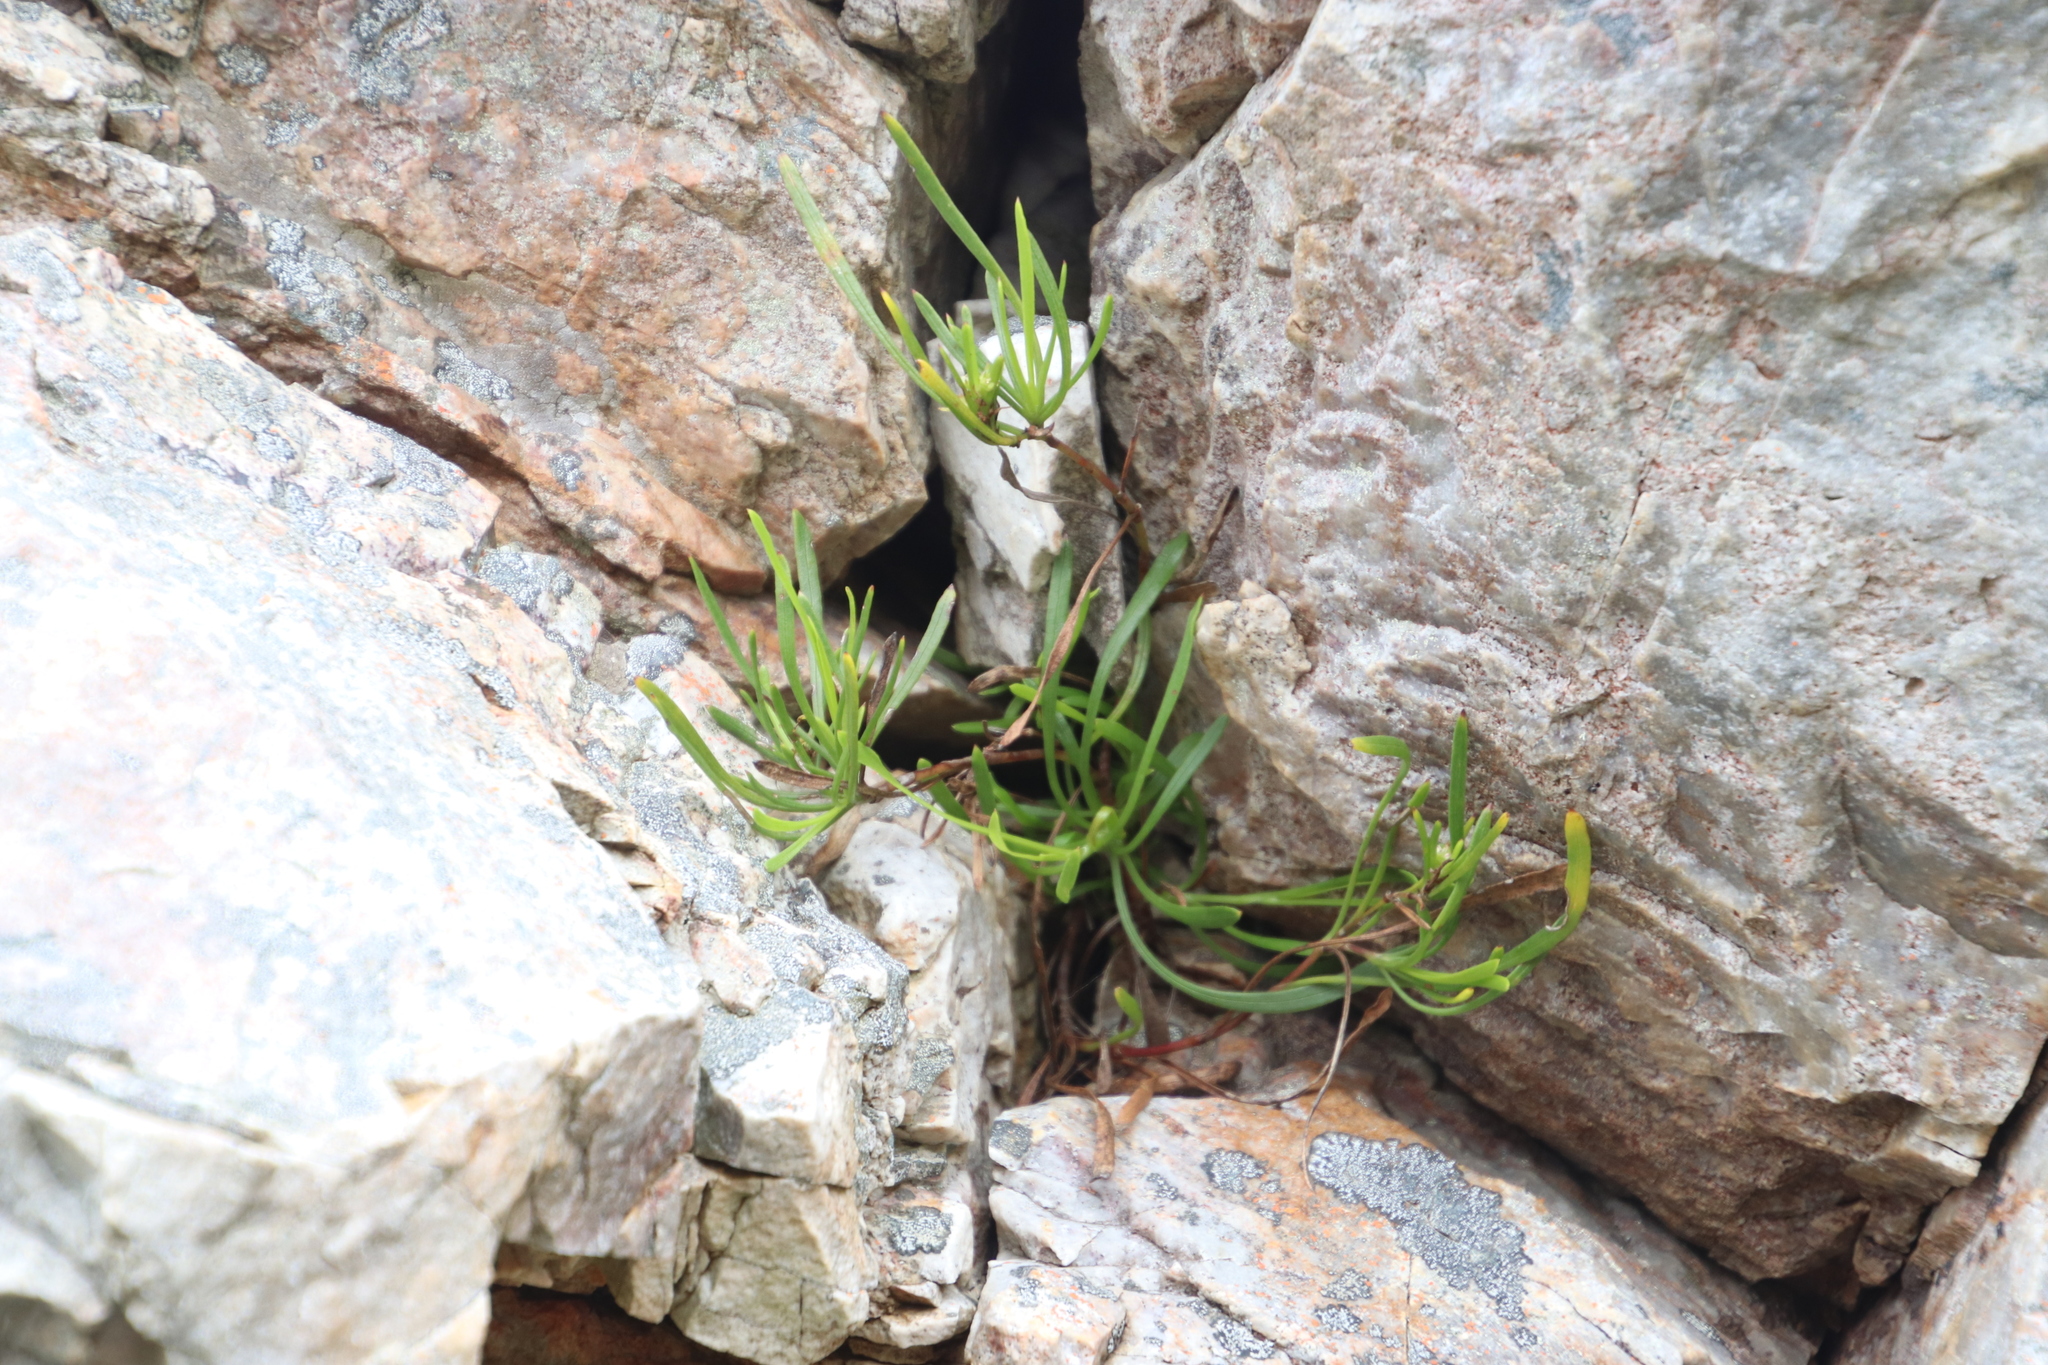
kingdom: Plantae
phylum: Tracheophyta
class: Magnoliopsida
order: Apiales
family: Apiaceae
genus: Centella
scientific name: Centella rupestris
